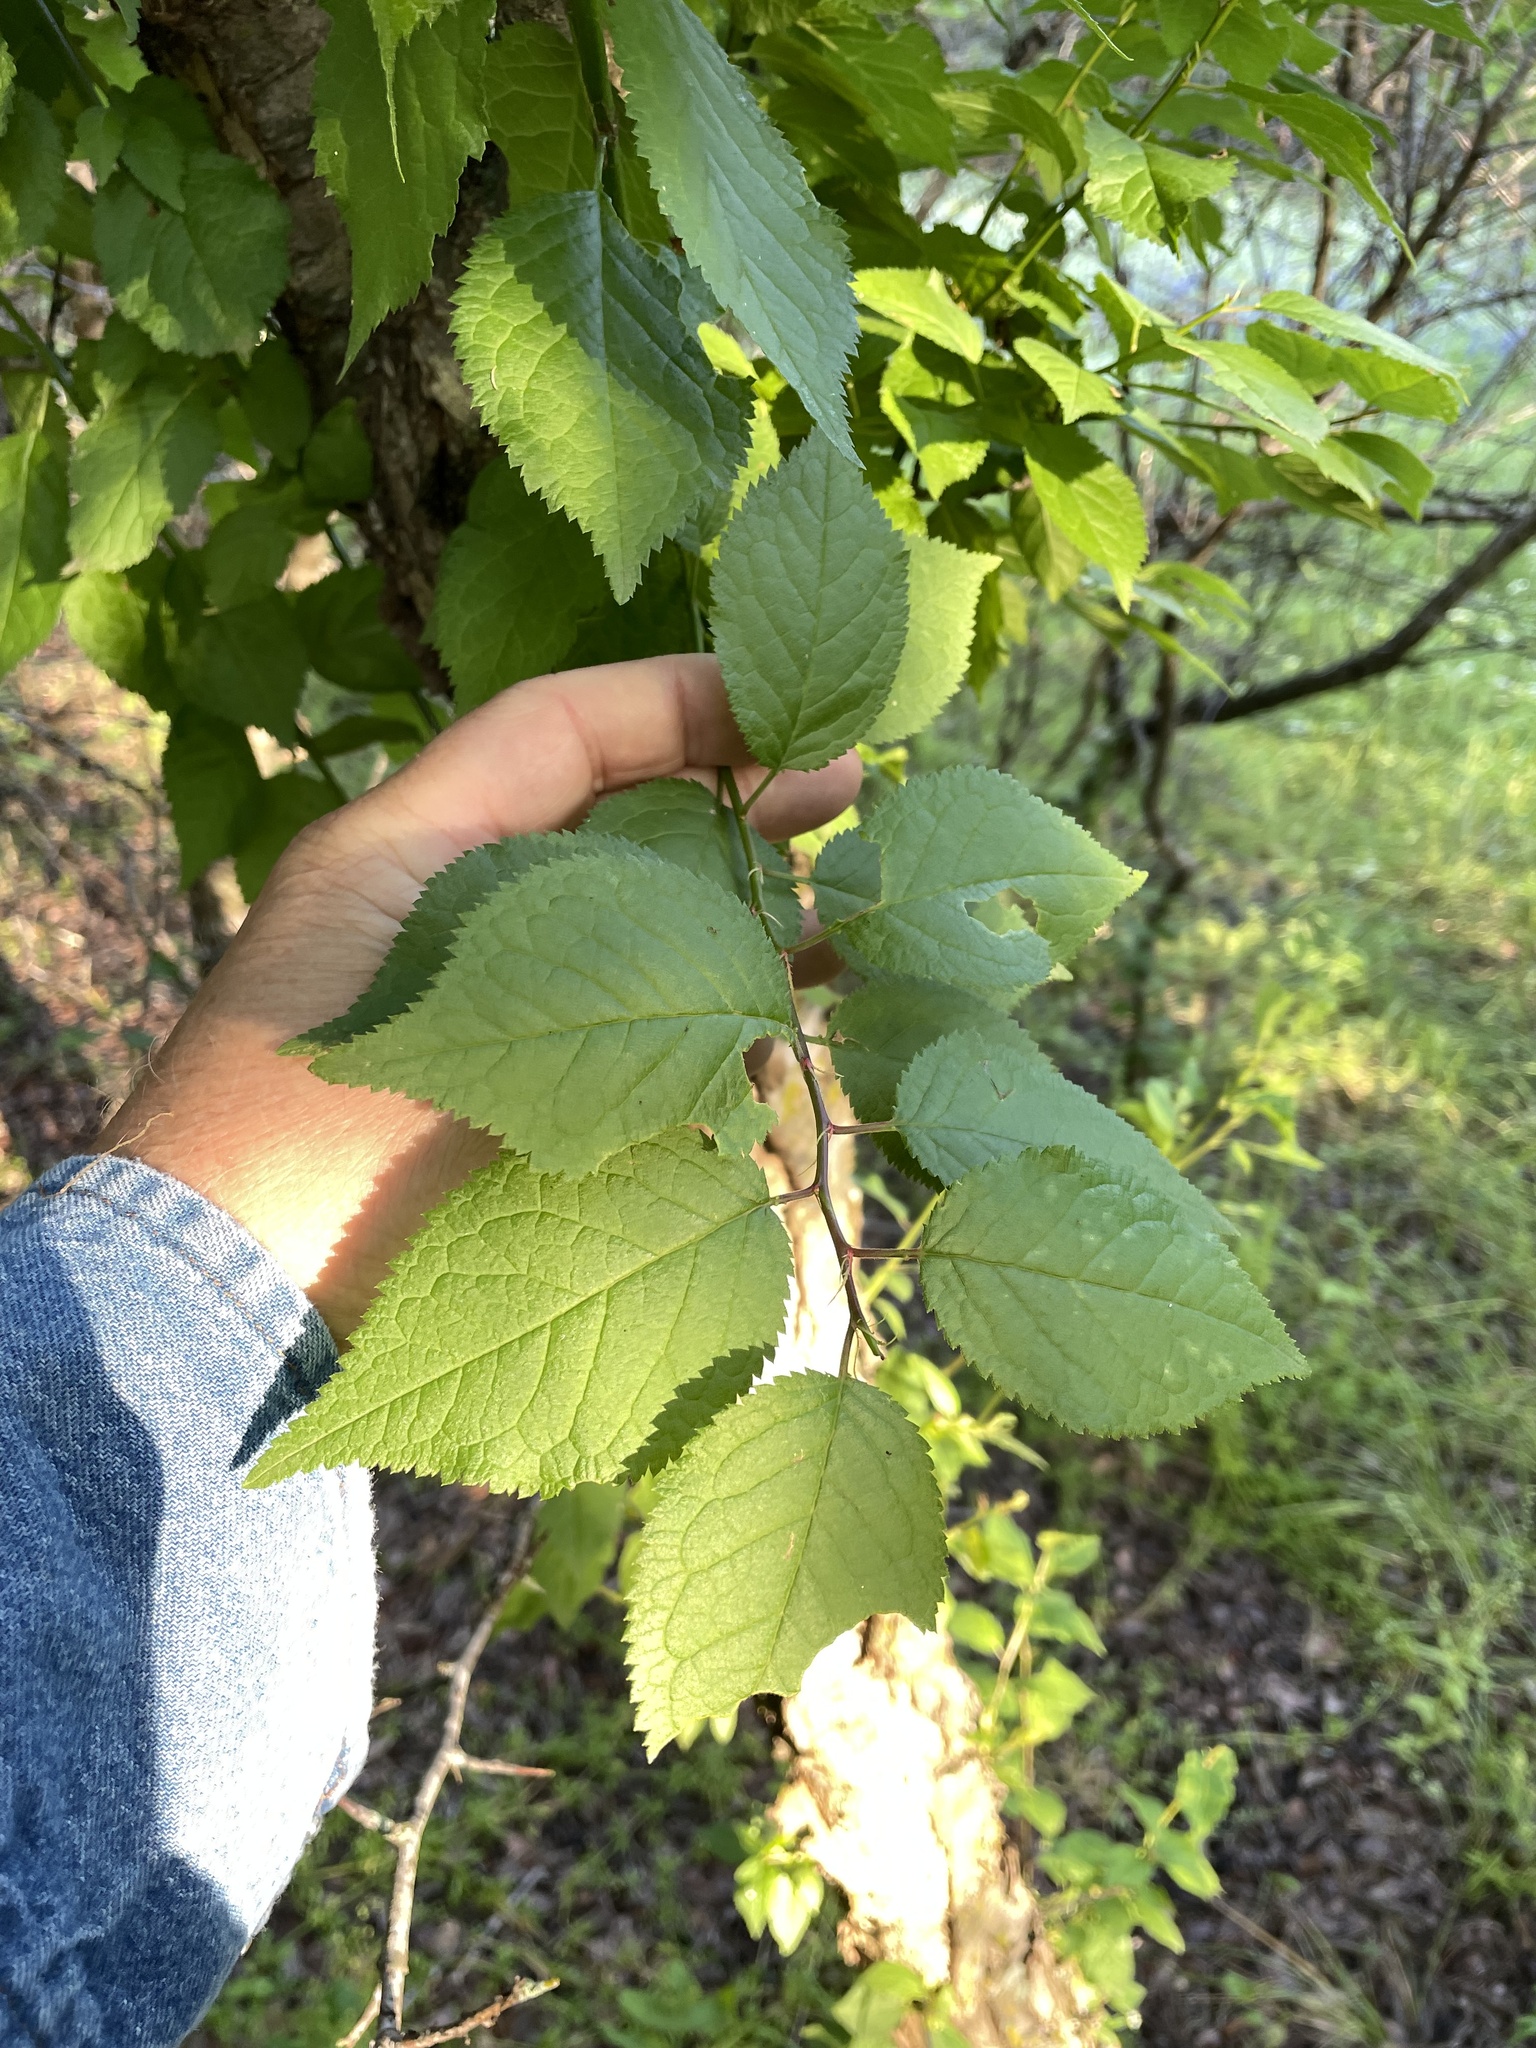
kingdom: Plantae
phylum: Tracheophyta
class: Magnoliopsida
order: Rosales
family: Rosaceae
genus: Prunus
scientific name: Prunus mexicana
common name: Mexican plum
